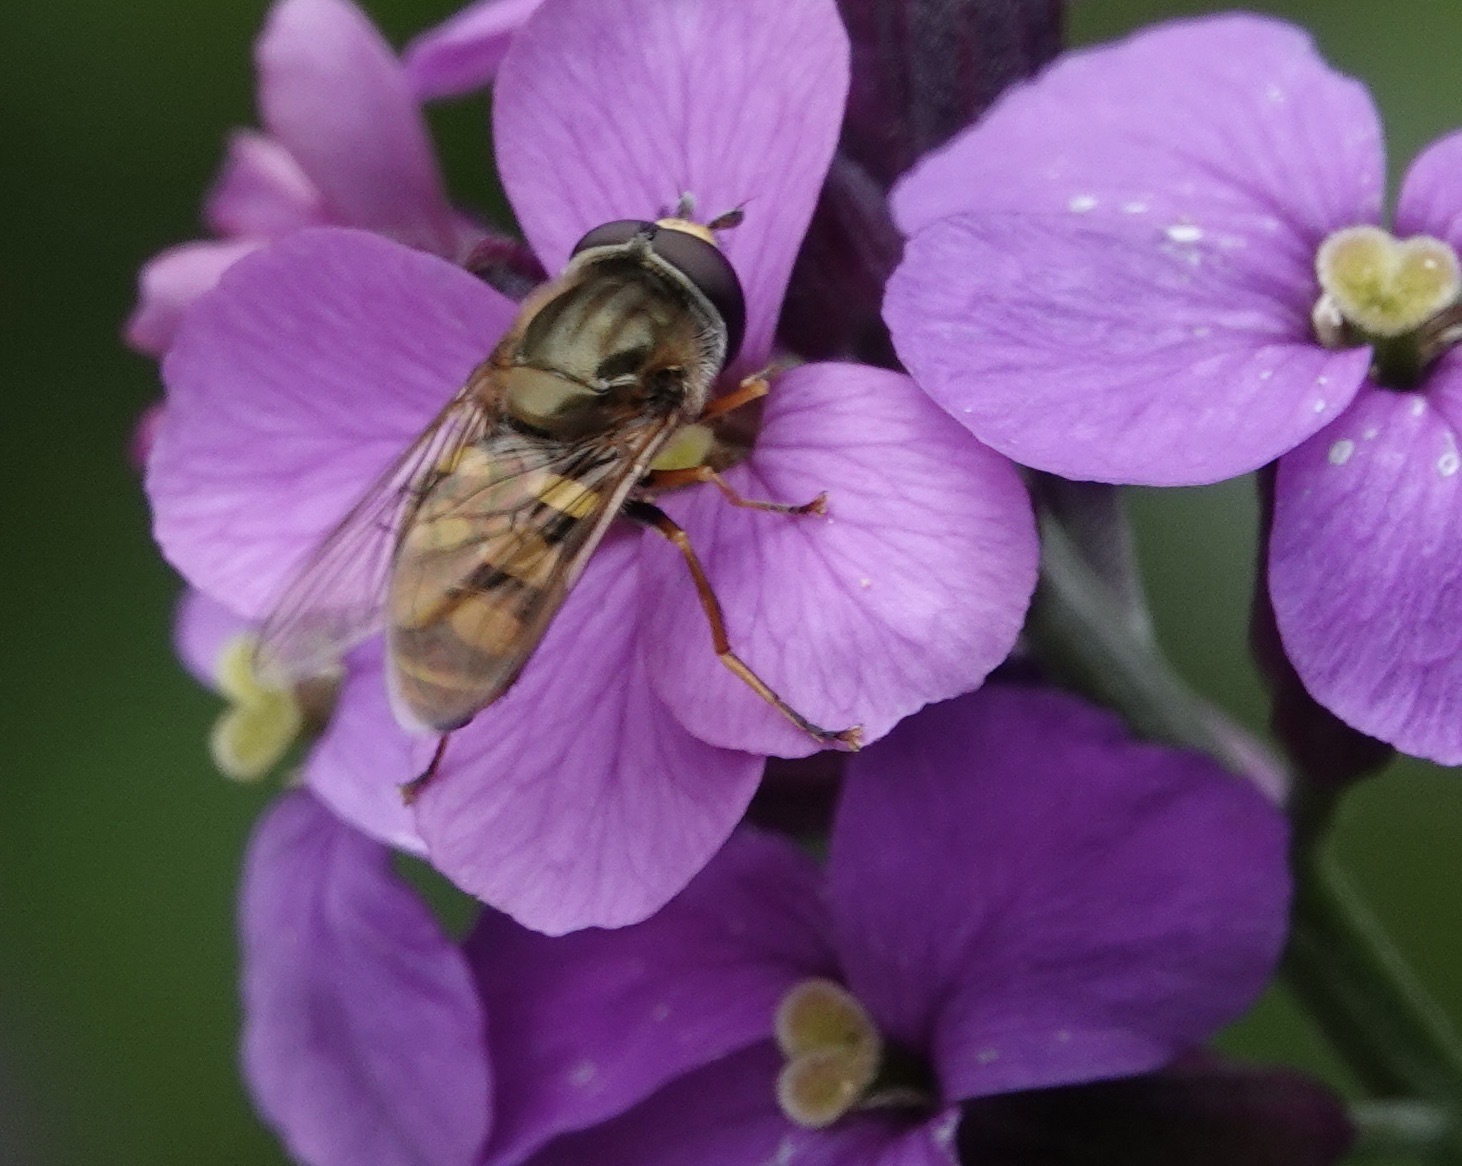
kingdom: Animalia
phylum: Arthropoda
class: Insecta
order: Diptera
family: Syrphidae
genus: Eupeodes
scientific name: Eupeodes corollae
